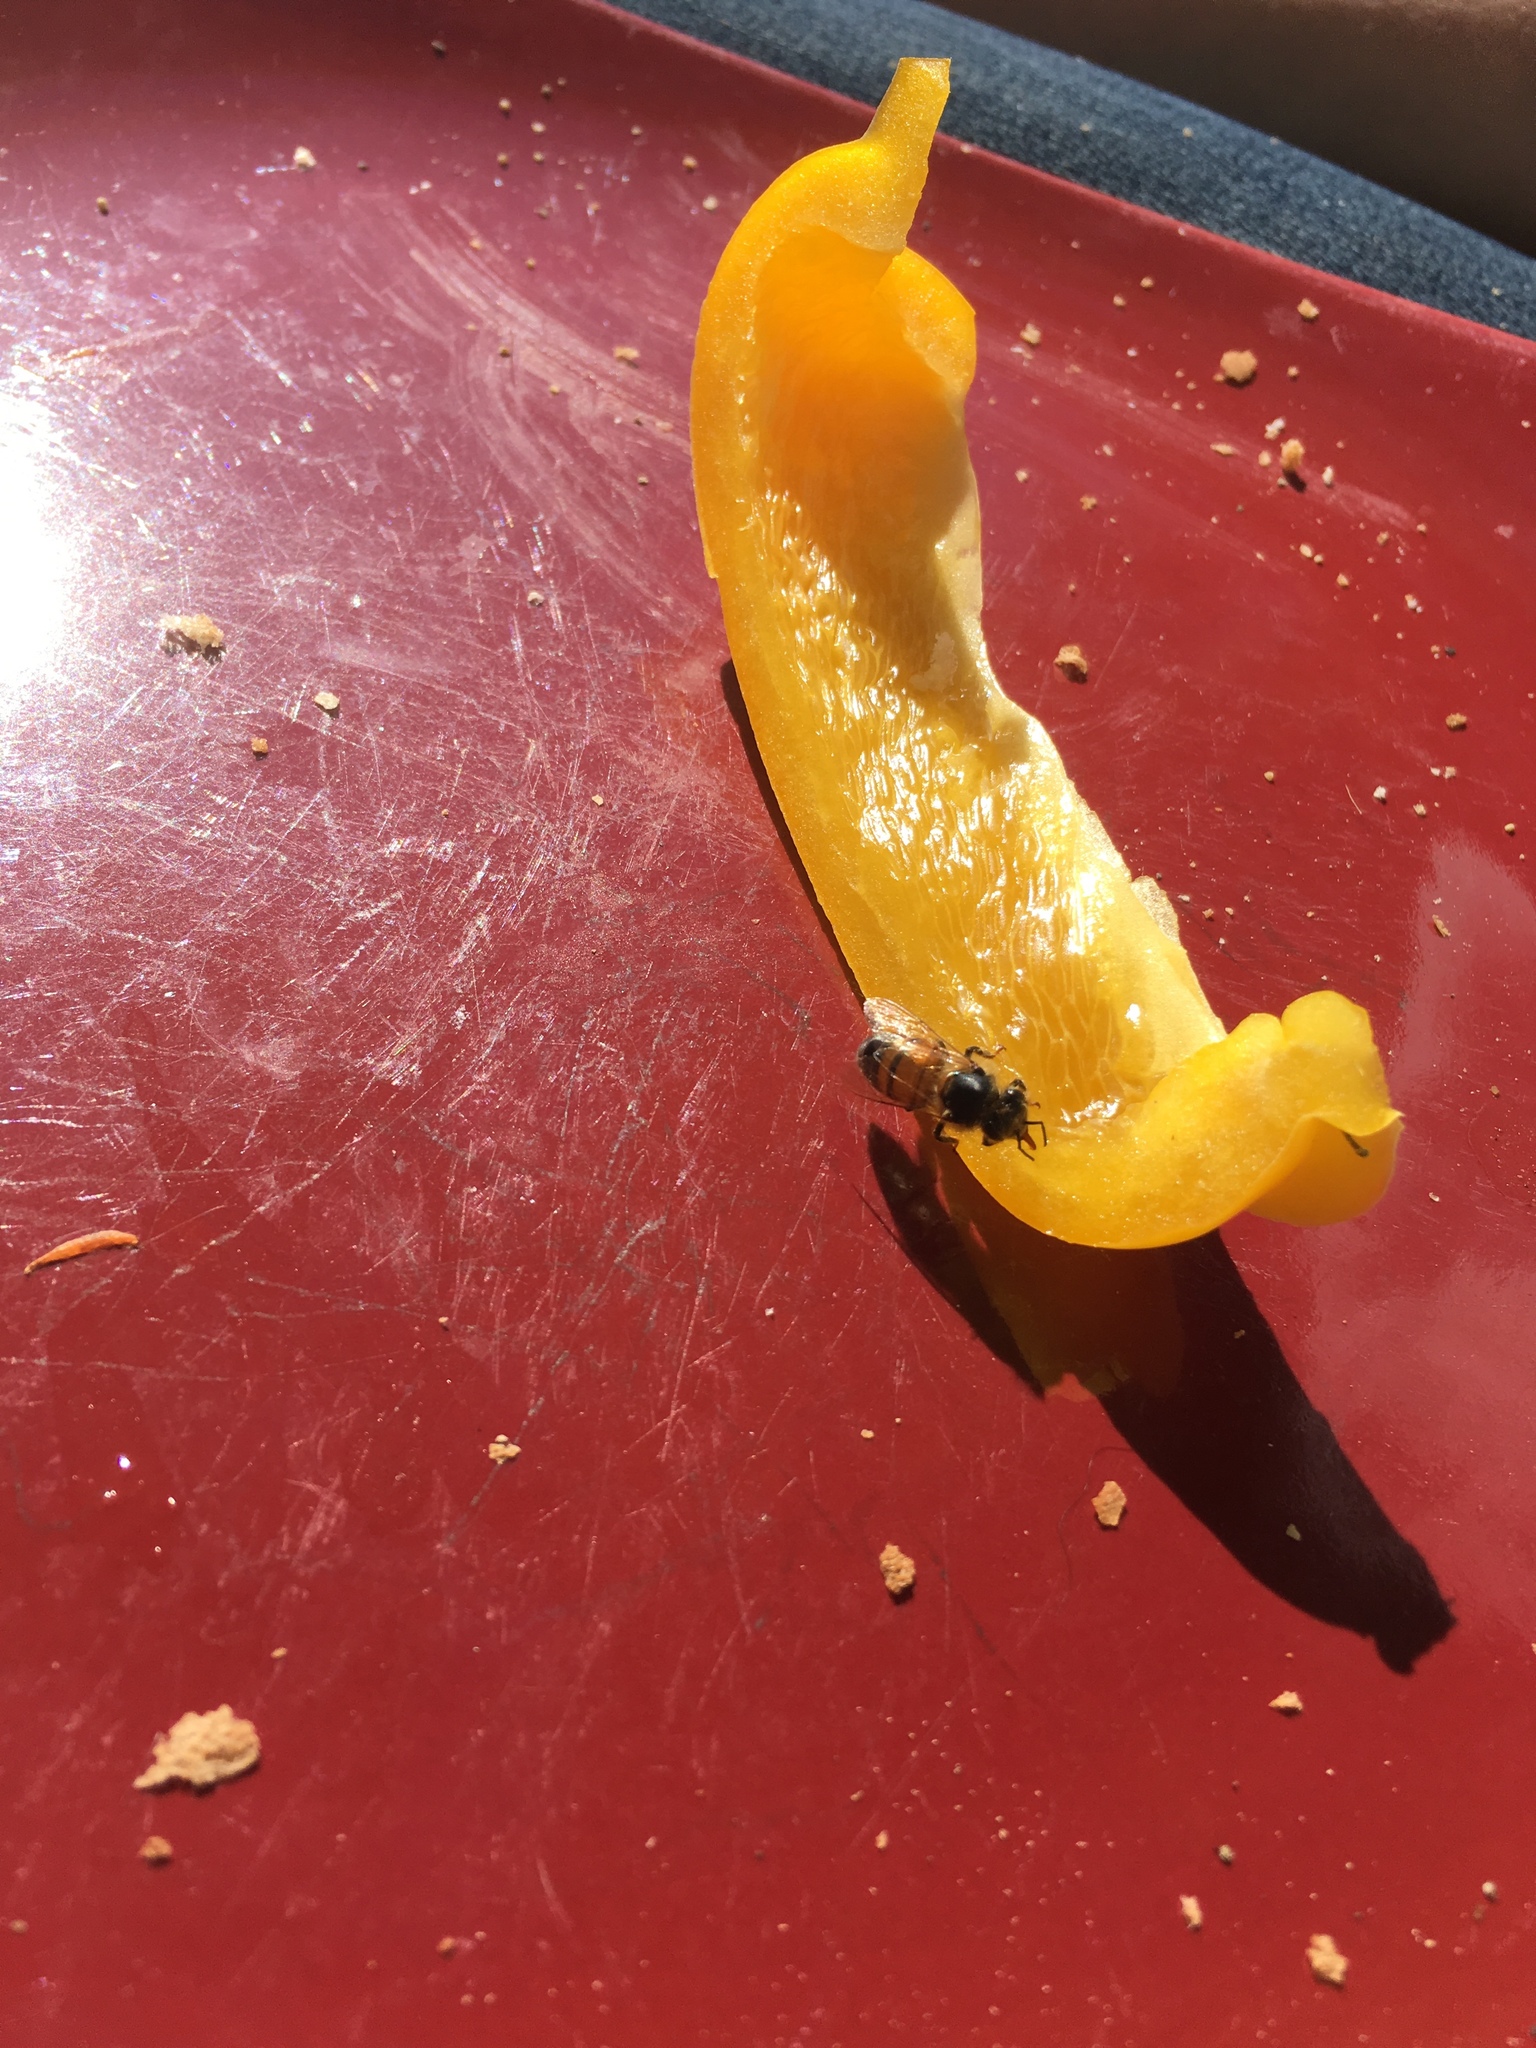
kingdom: Animalia
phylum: Arthropoda
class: Insecta
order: Hymenoptera
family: Apidae
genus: Apis
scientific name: Apis mellifera
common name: Honey bee
